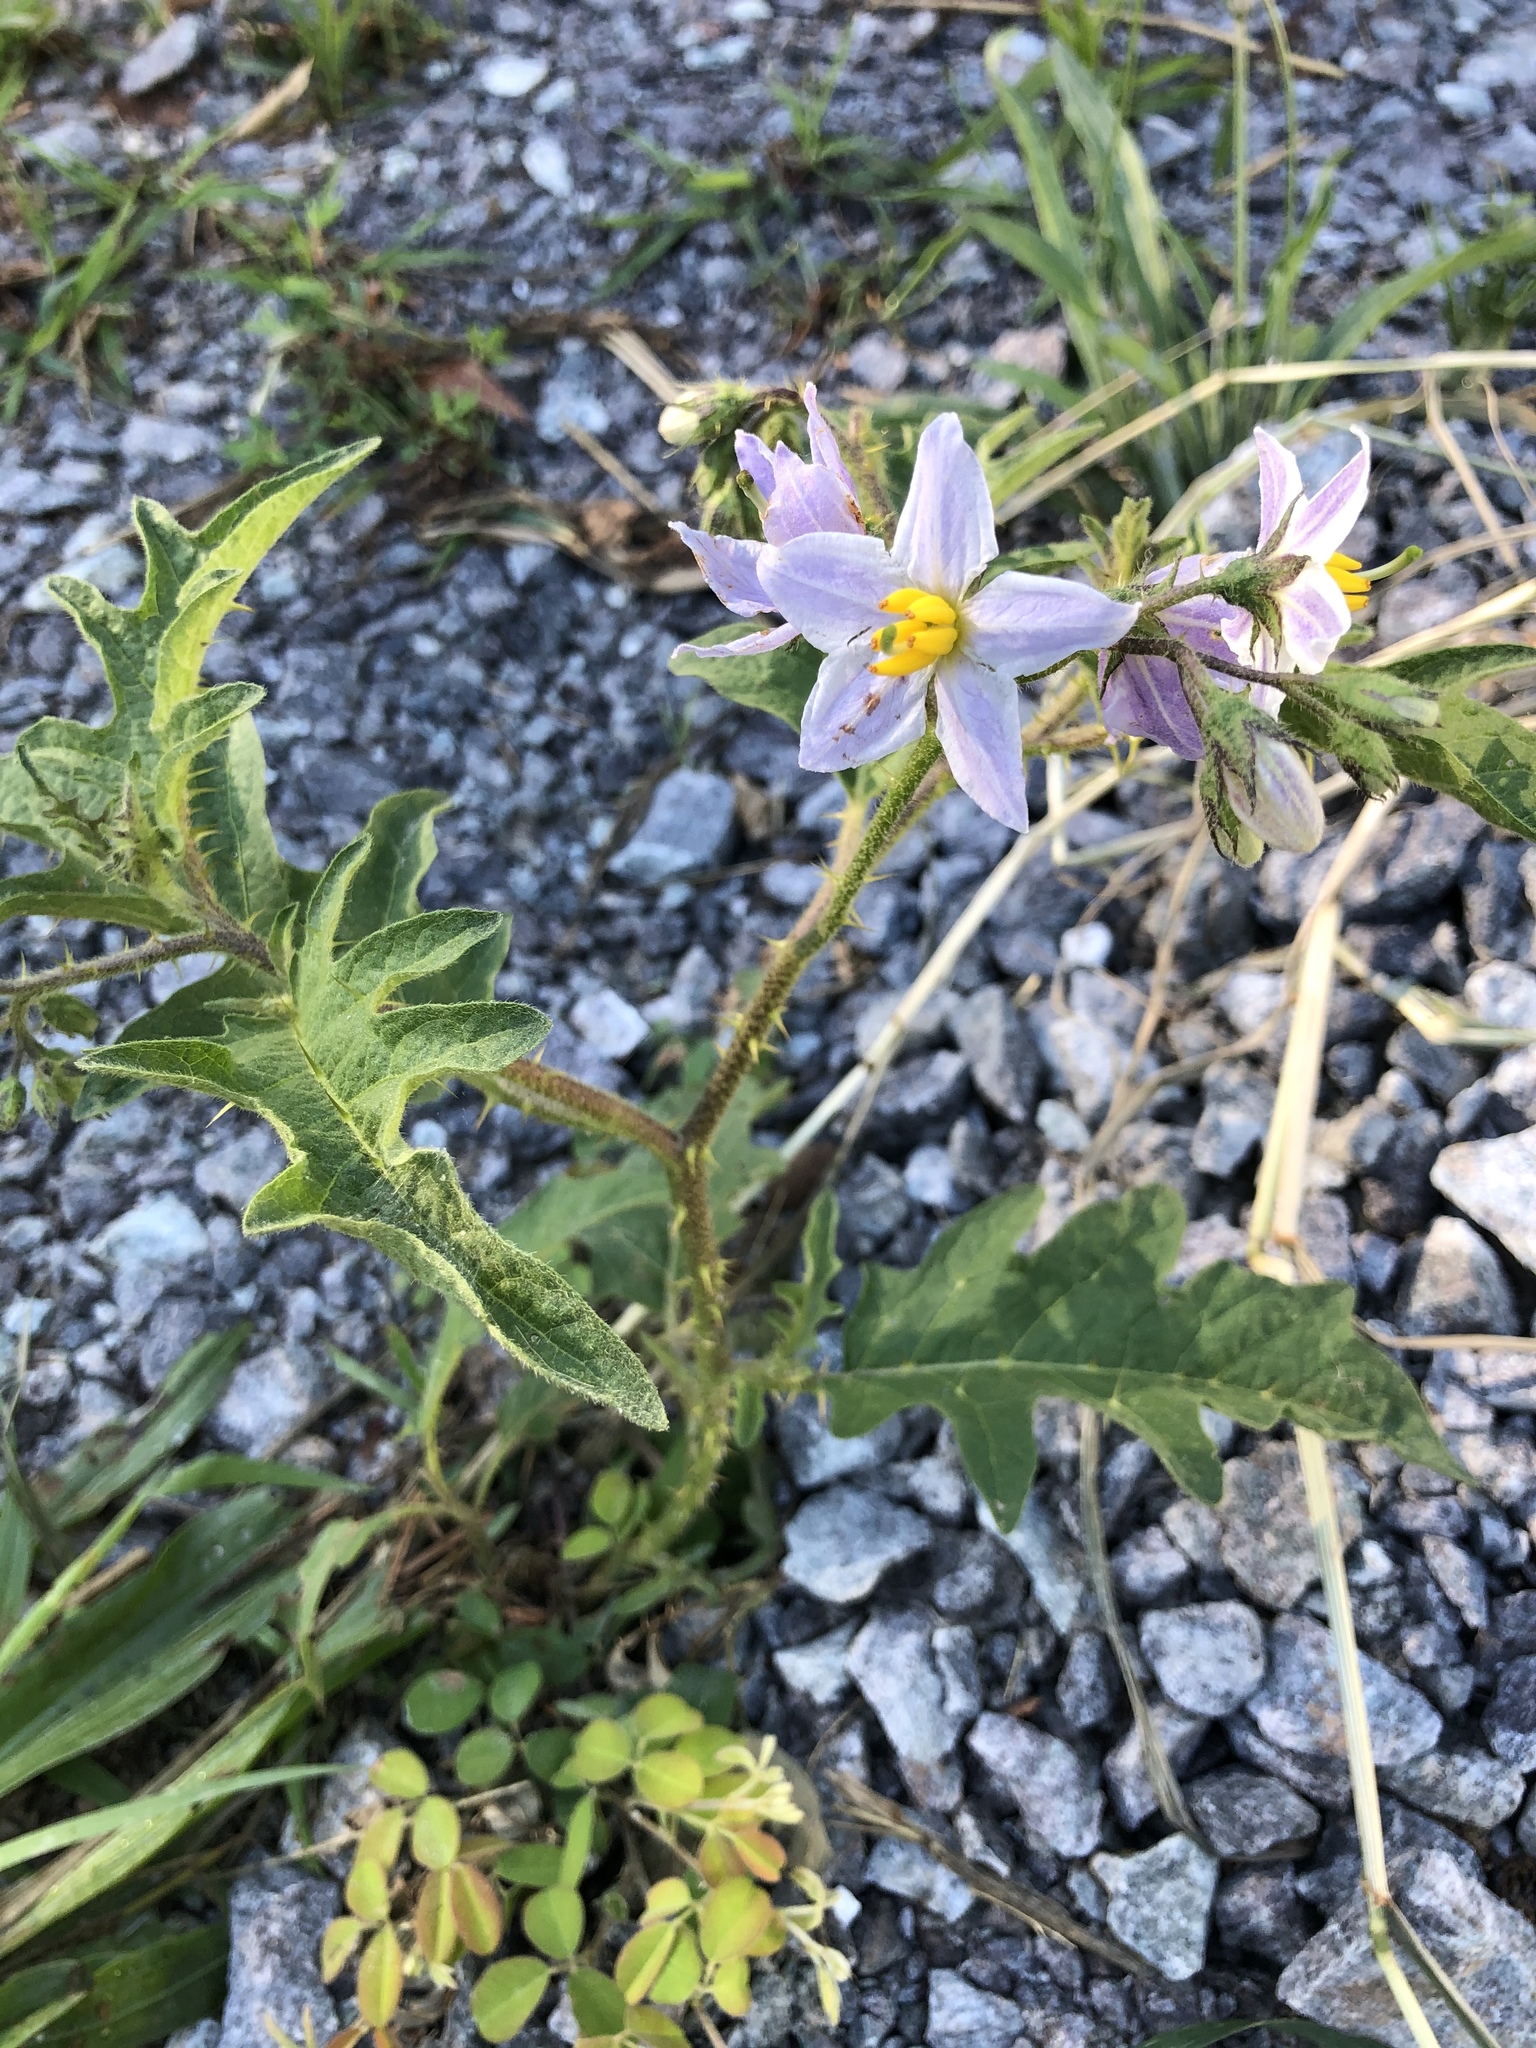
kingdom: Plantae
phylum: Tracheophyta
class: Magnoliopsida
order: Solanales
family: Solanaceae
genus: Solanum
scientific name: Solanum carolinense
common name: Horse-nettle
